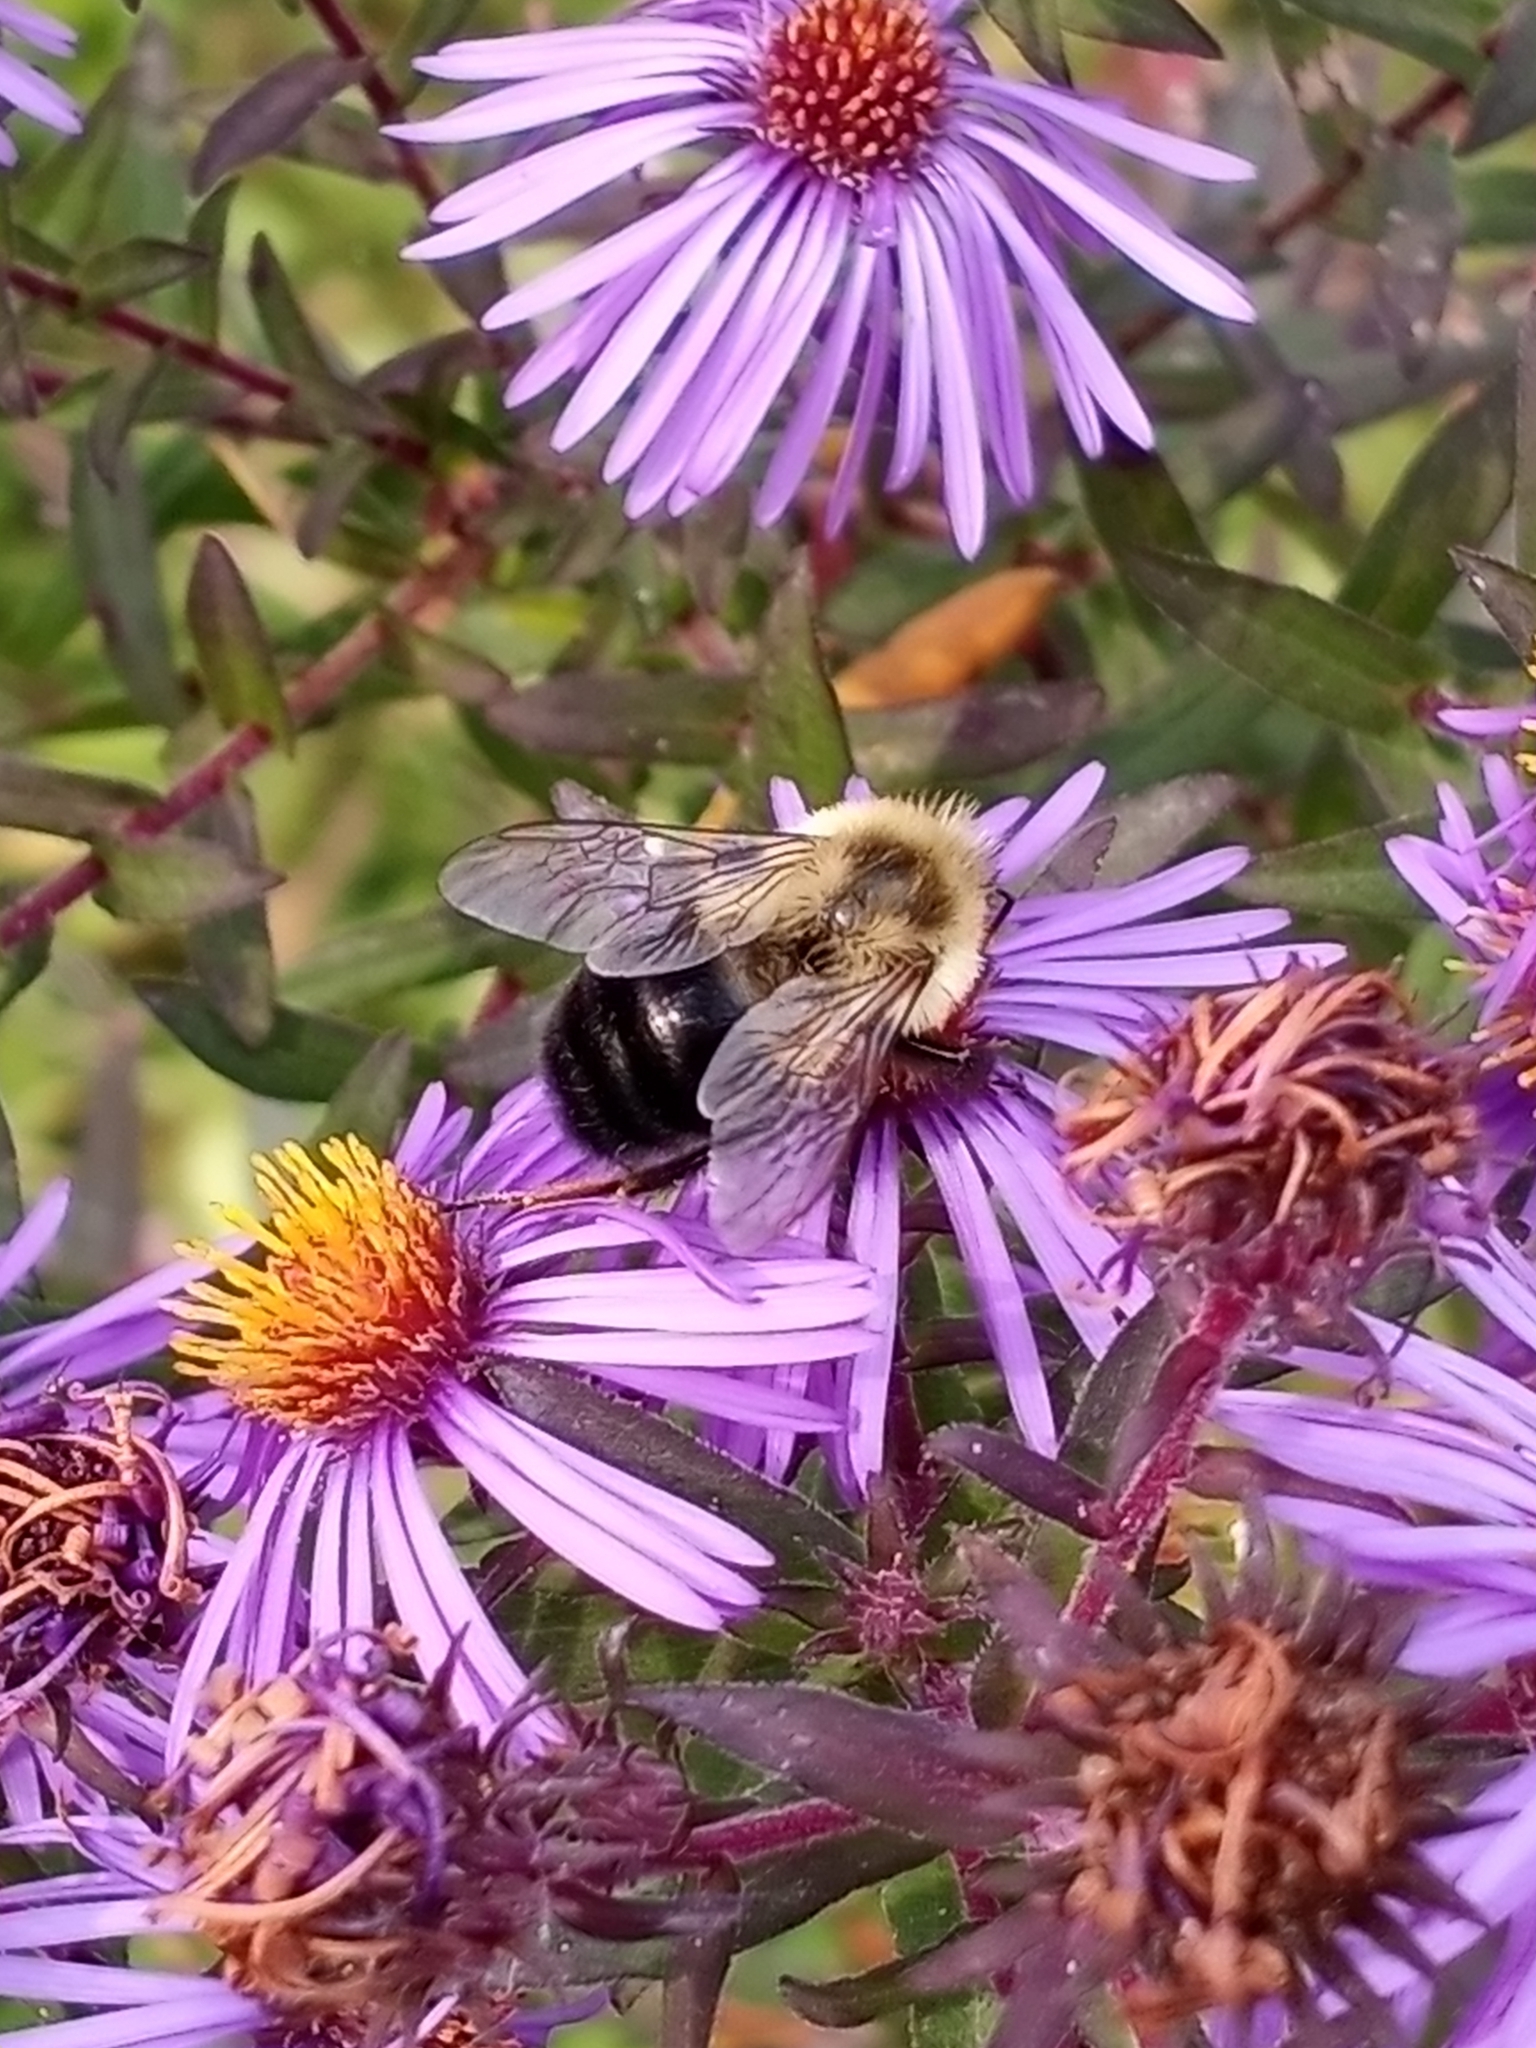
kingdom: Animalia
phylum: Arthropoda
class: Insecta
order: Hymenoptera
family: Apidae
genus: Bombus
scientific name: Bombus impatiens
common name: Common eastern bumble bee
